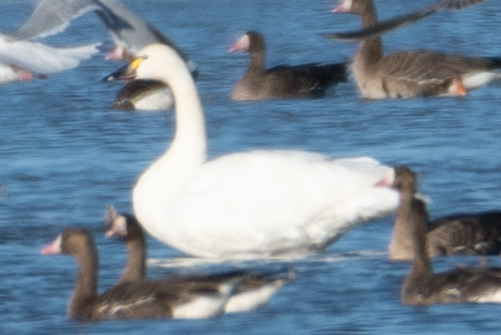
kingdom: Animalia
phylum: Chordata
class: Aves
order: Anseriformes
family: Anatidae
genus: Cygnus
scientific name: Cygnus columbianus
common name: Tundra swan
